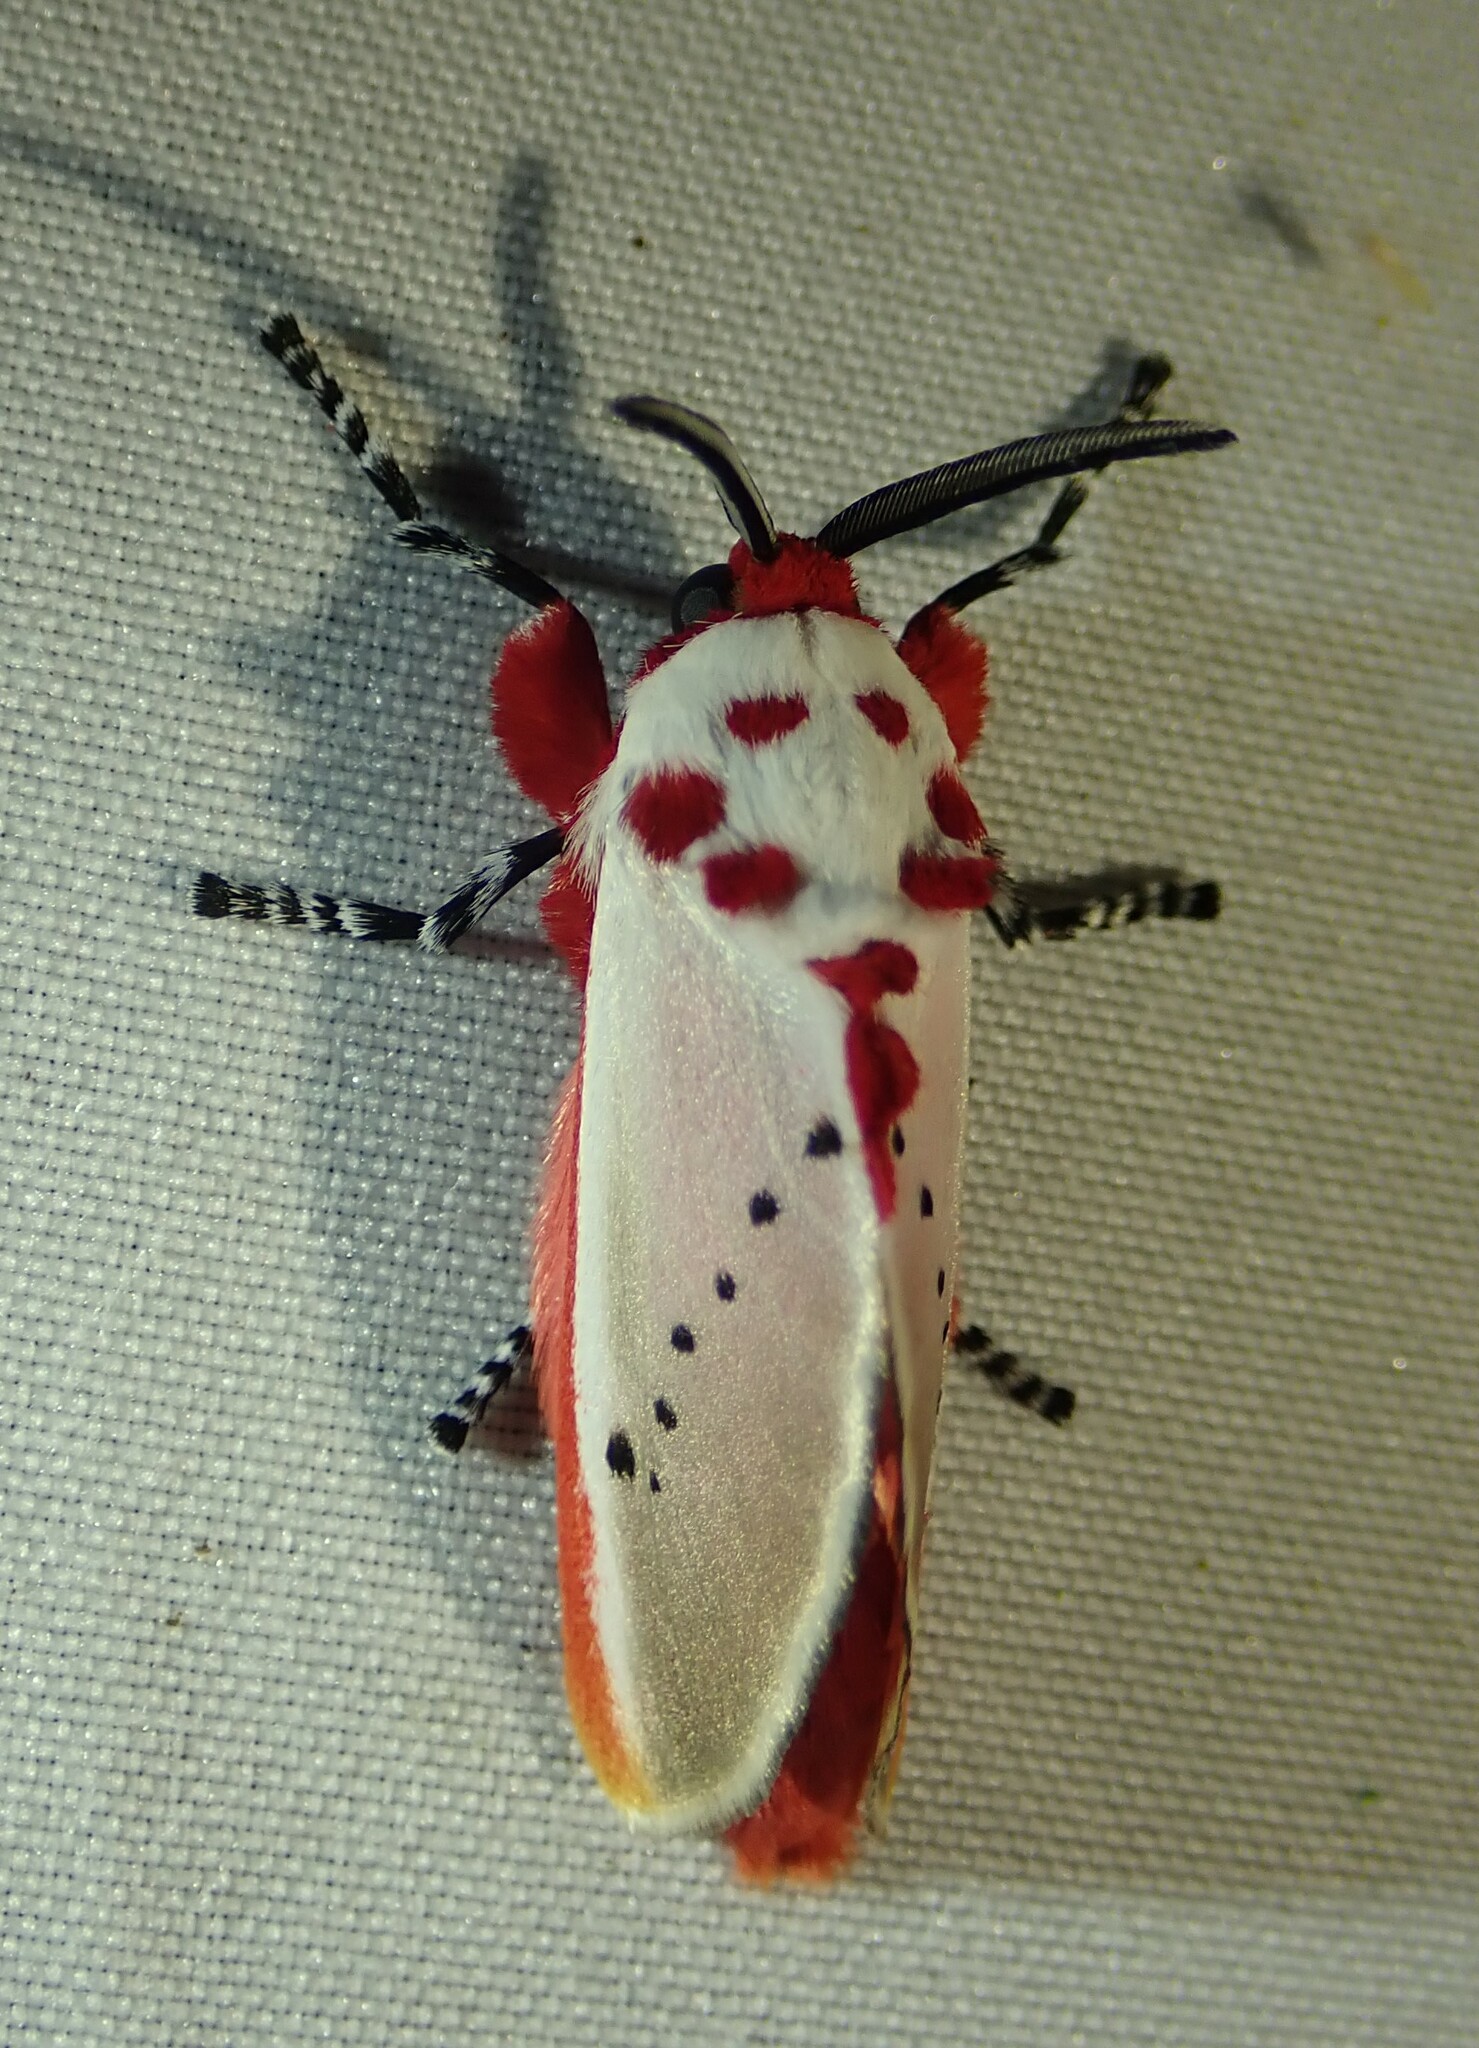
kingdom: Animalia
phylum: Arthropoda
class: Insecta
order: Lepidoptera
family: Megalopygidae
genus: Trosia
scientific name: Trosia semirufa
